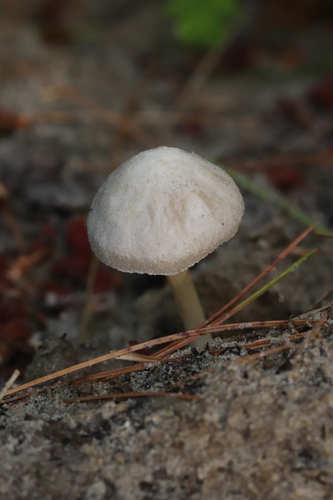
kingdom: Fungi
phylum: Basidiomycota
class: Agaricomycetes
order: Agaricales
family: Pluteaceae
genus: Pluteus
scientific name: Pluteus
